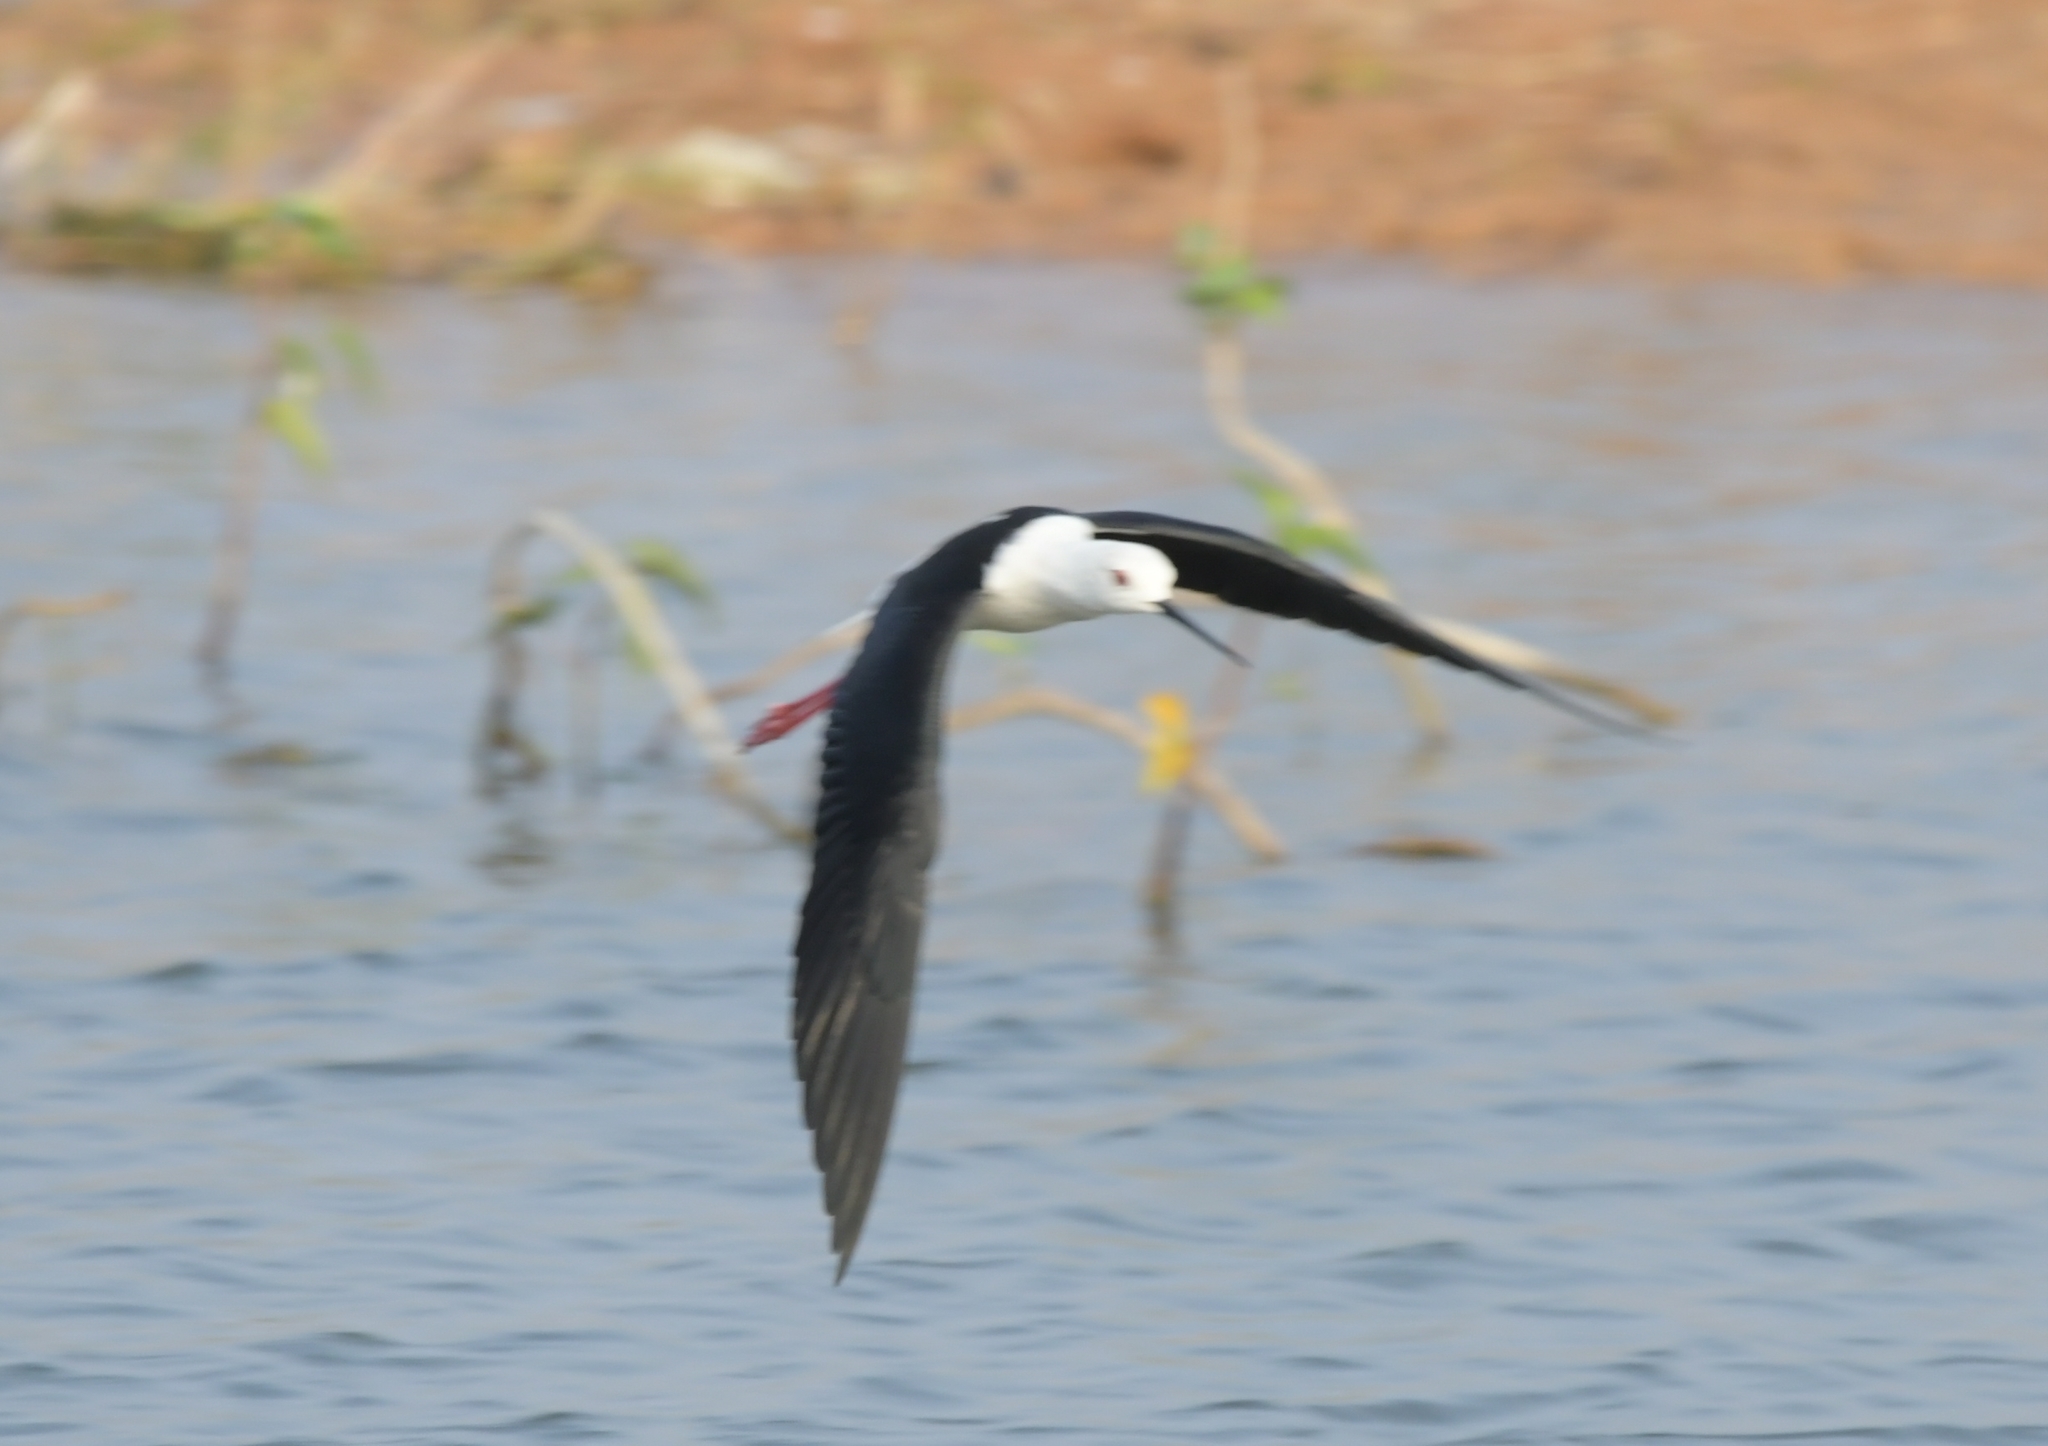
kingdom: Animalia
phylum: Chordata
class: Aves
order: Charadriiformes
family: Recurvirostridae
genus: Himantopus
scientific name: Himantopus himantopus
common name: Black-winged stilt
